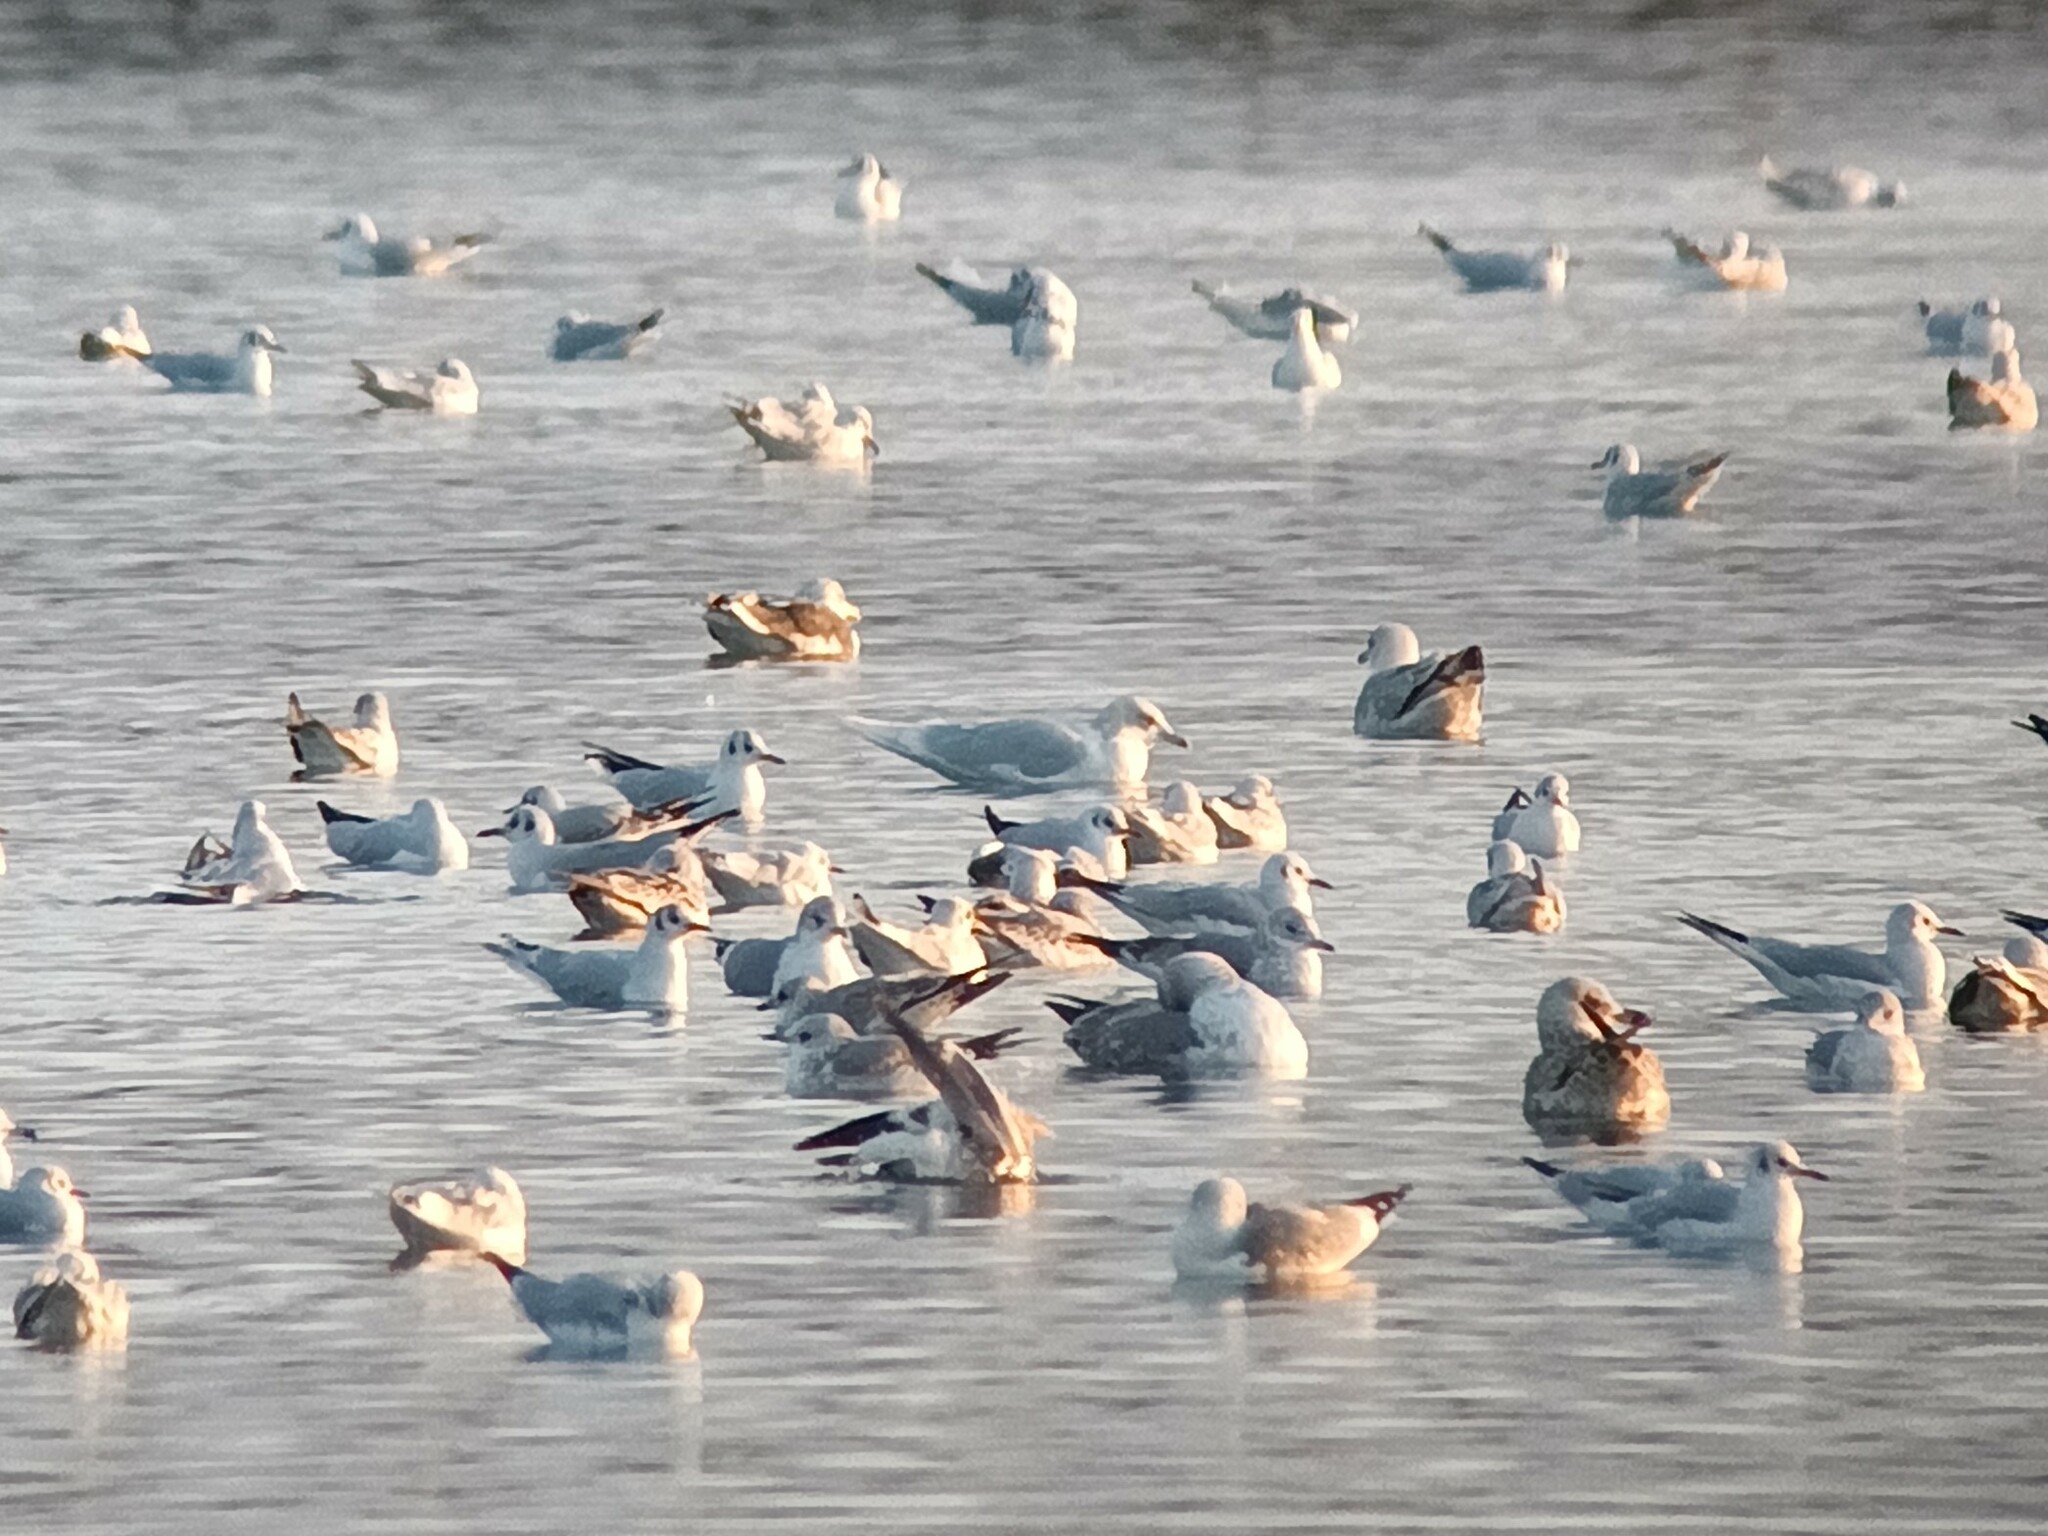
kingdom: Animalia
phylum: Chordata
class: Aves
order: Charadriiformes
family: Laridae
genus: Larus
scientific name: Larus glaucoides
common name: Iceland gull
